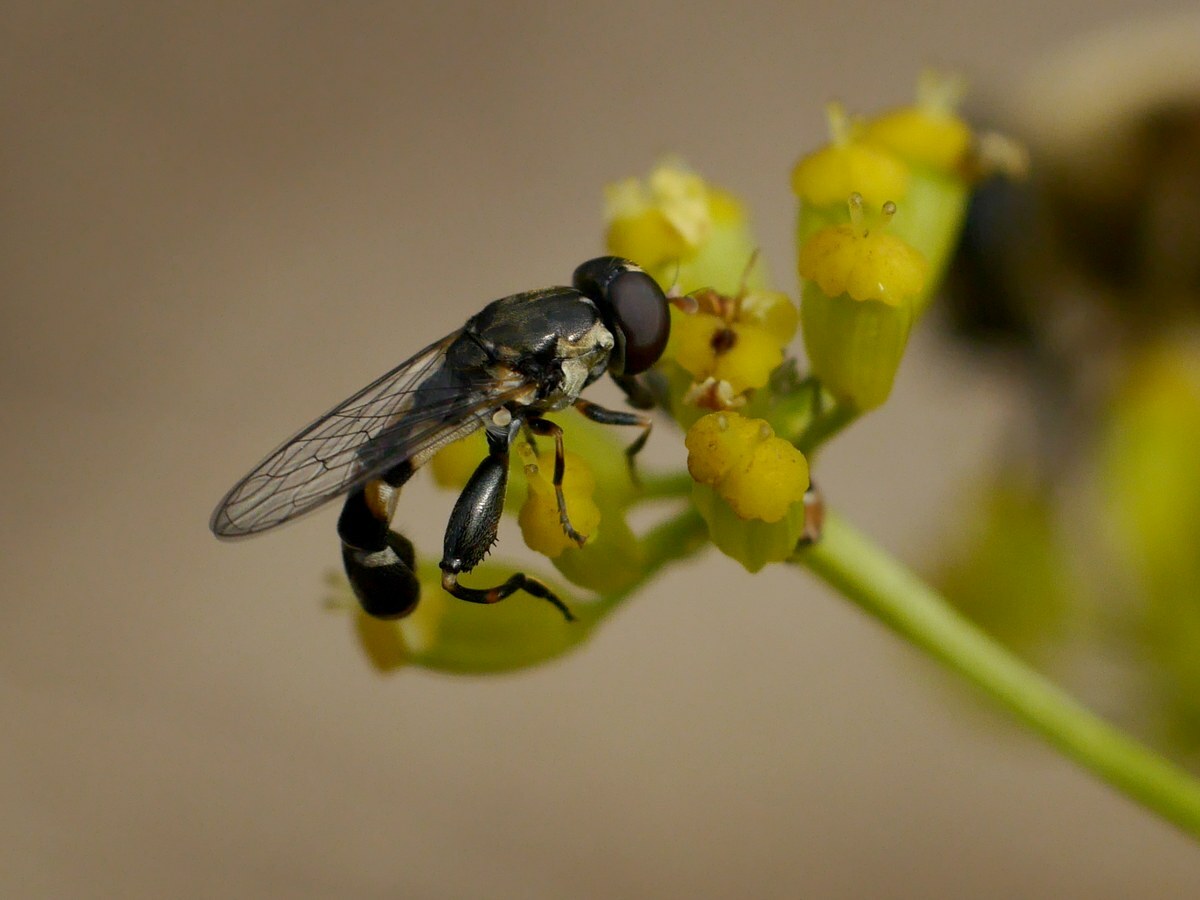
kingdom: Animalia
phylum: Arthropoda
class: Insecta
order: Diptera
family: Syrphidae
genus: Syritta
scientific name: Syritta pipiens
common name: Hover fly
